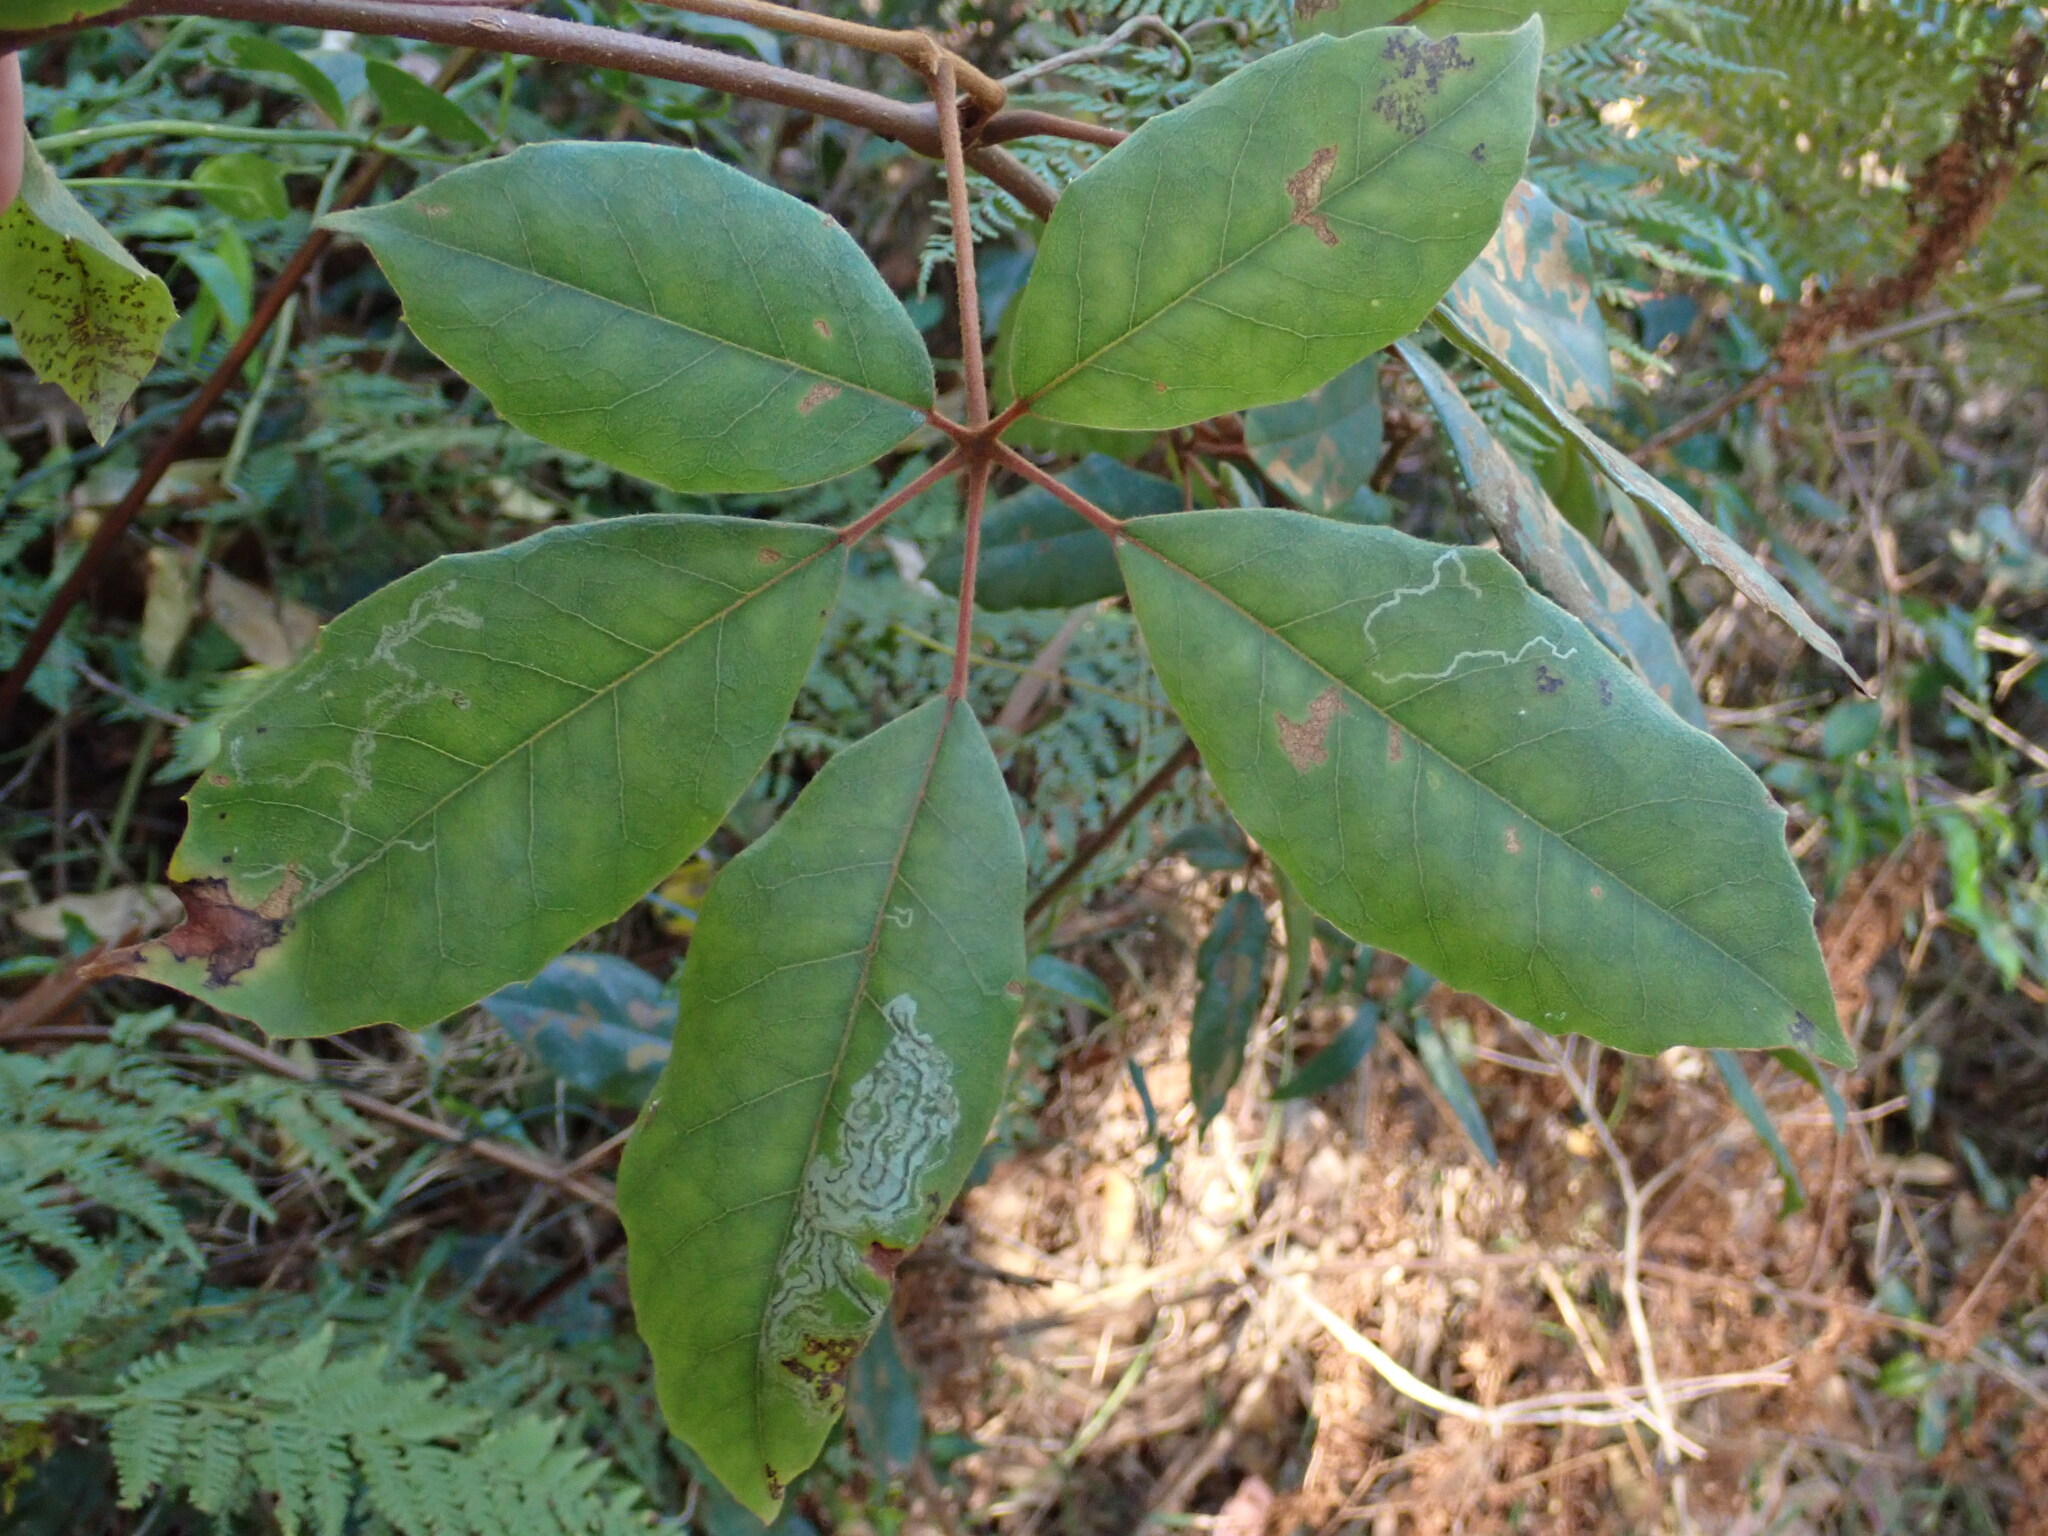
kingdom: Plantae
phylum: Tracheophyta
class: Magnoliopsida
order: Vitales
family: Vitaceae
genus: Nothocissus
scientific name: Nothocissus hypoglauca
